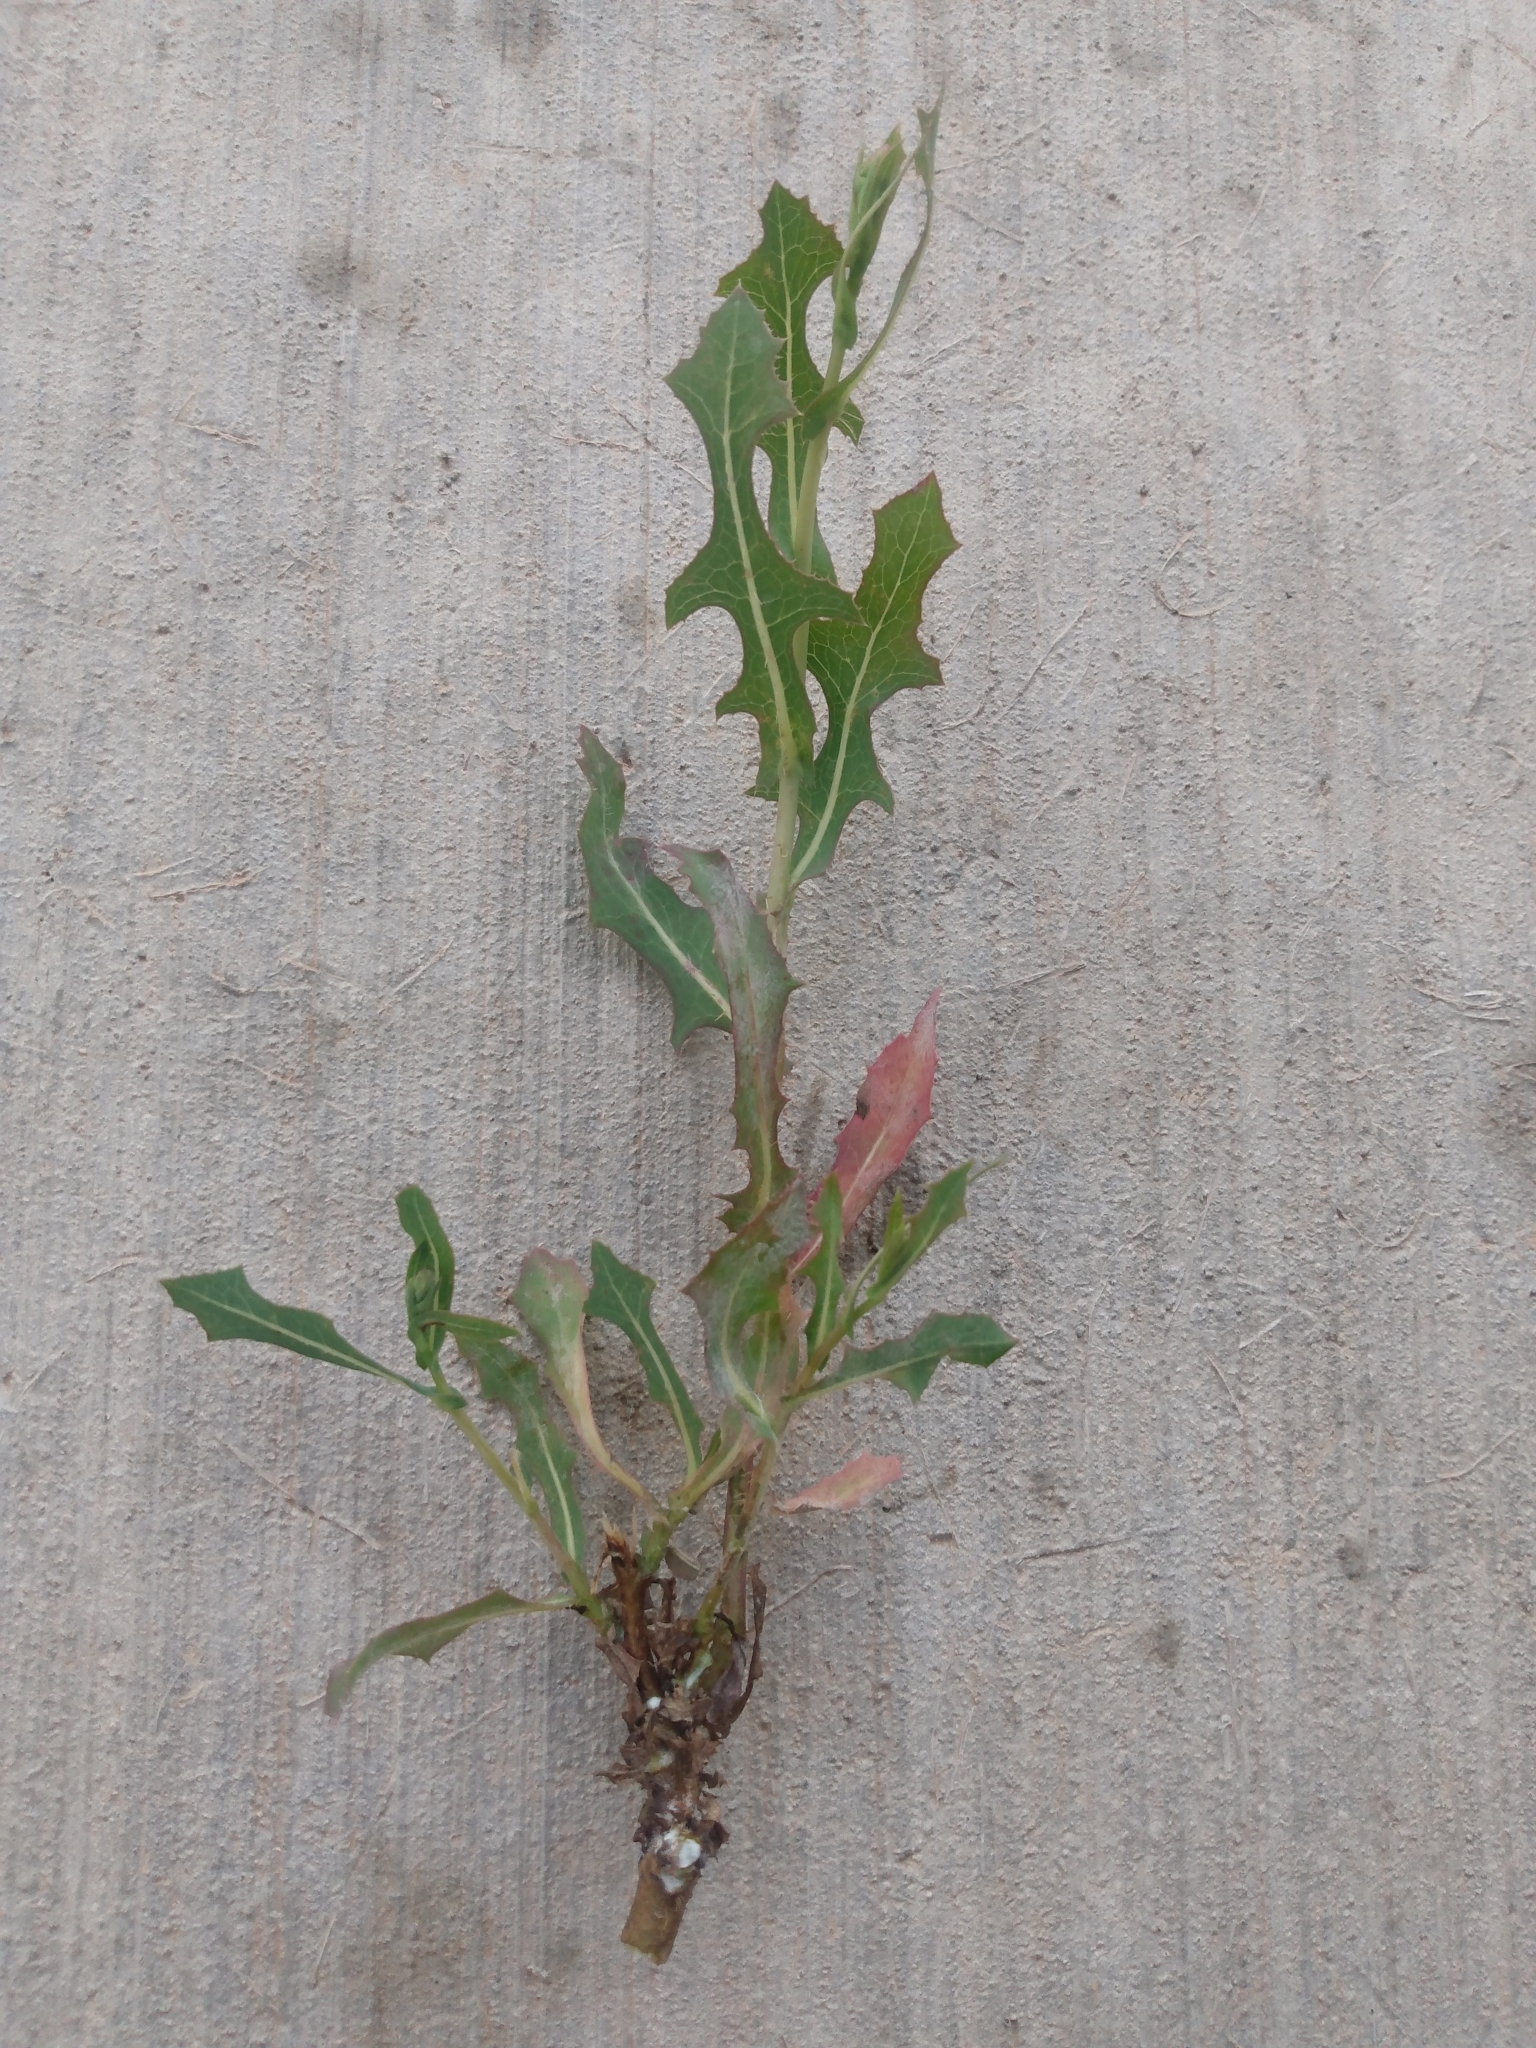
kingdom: Plantae
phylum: Tracheophyta
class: Magnoliopsida
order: Asterales
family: Asteraceae
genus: Lactuca
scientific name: Lactuca serriola
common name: Prickly lettuce
